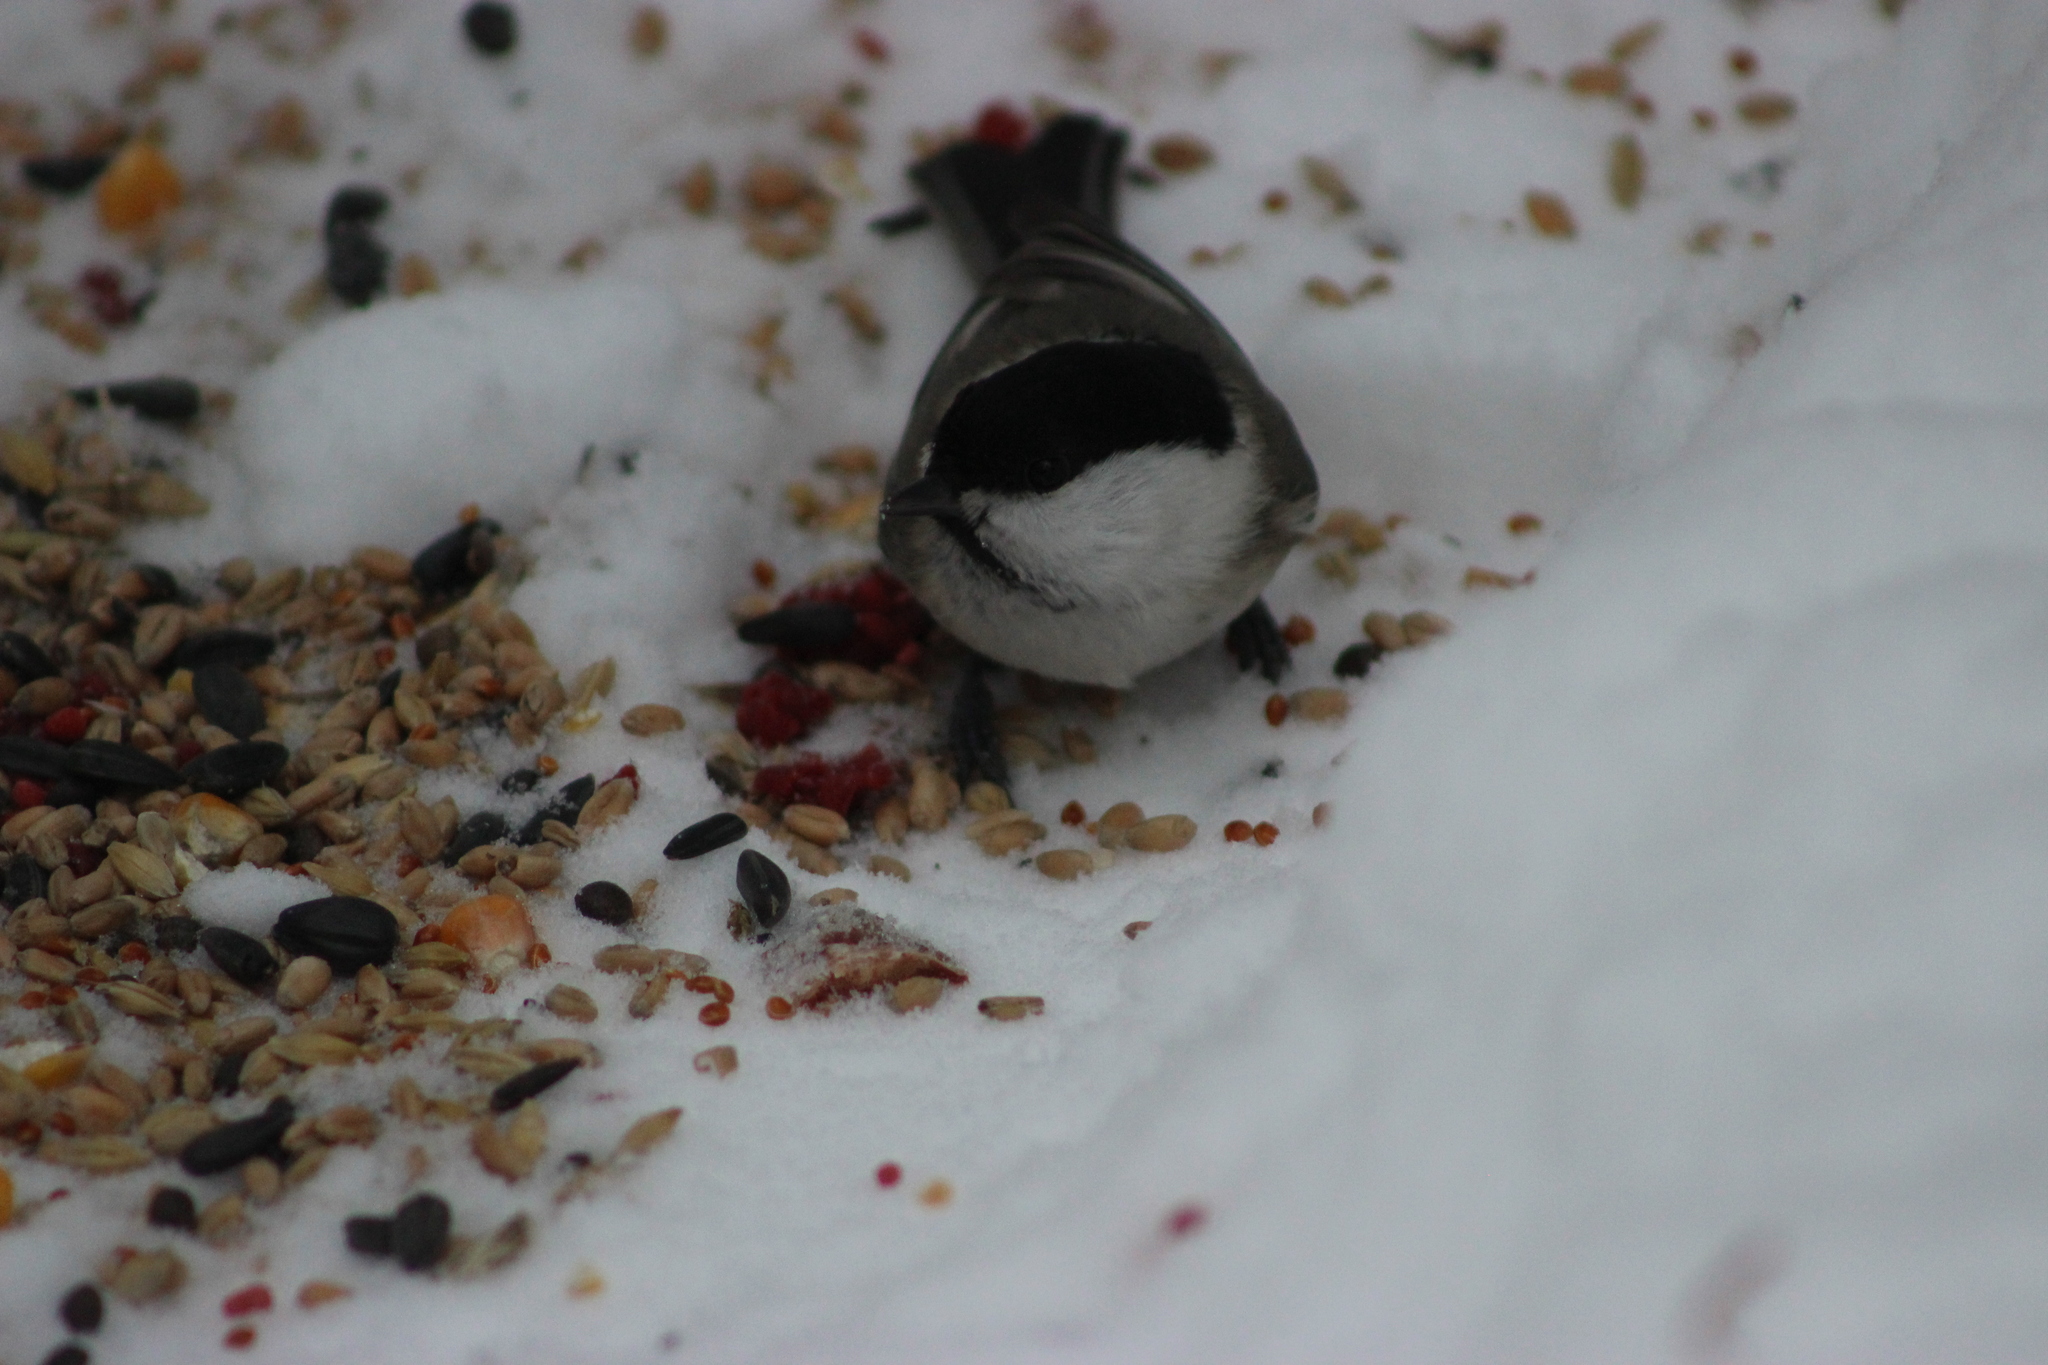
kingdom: Animalia
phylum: Chordata
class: Aves
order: Passeriformes
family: Paridae
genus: Poecile
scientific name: Poecile montanus
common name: Willow tit
